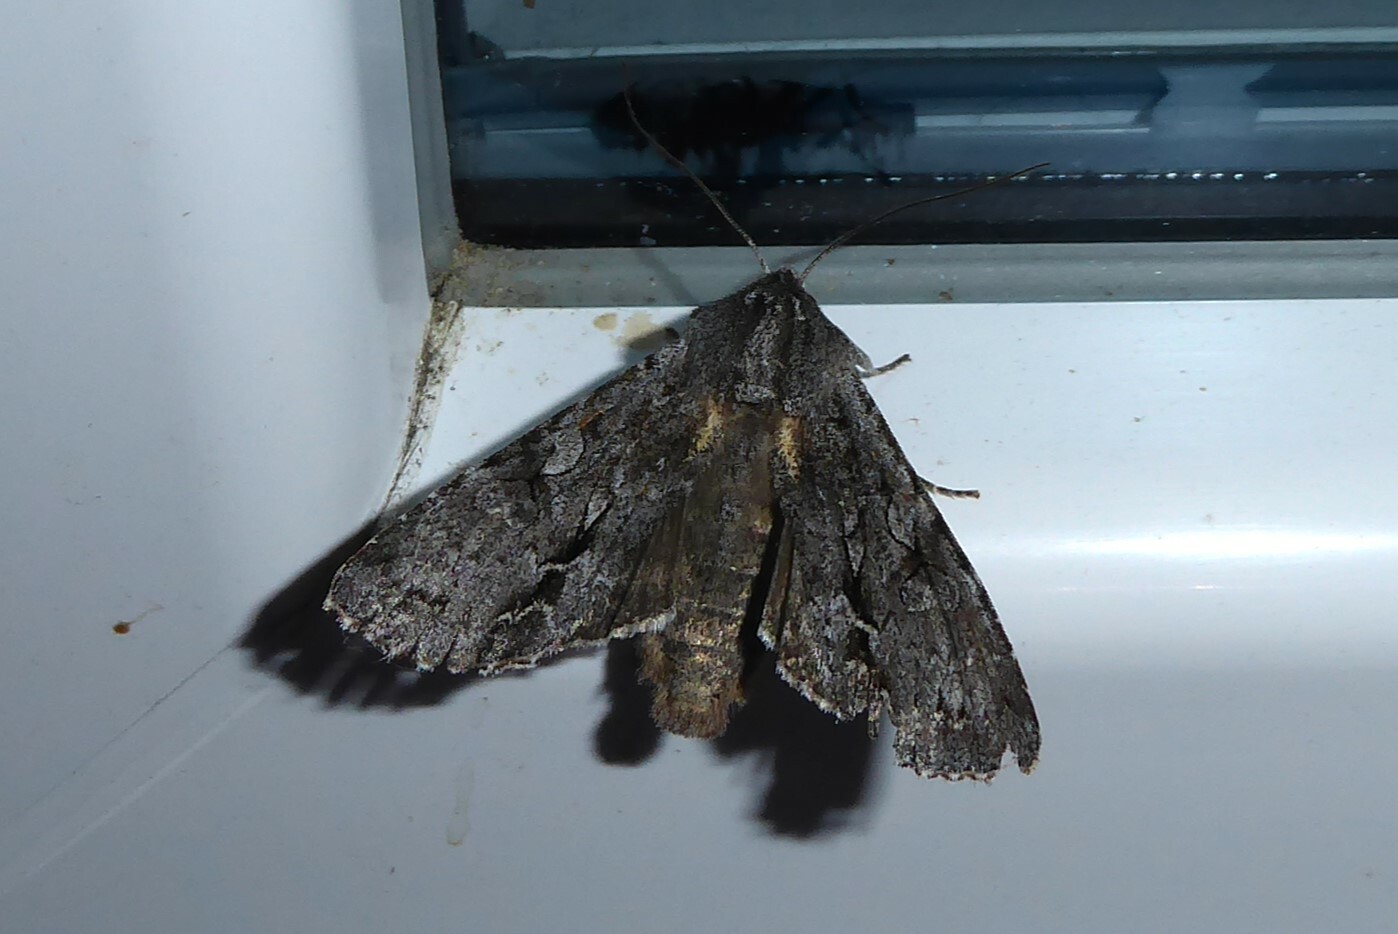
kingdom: Animalia
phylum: Arthropoda
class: Insecta
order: Lepidoptera
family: Noctuidae
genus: Ichneutica
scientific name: Ichneutica
